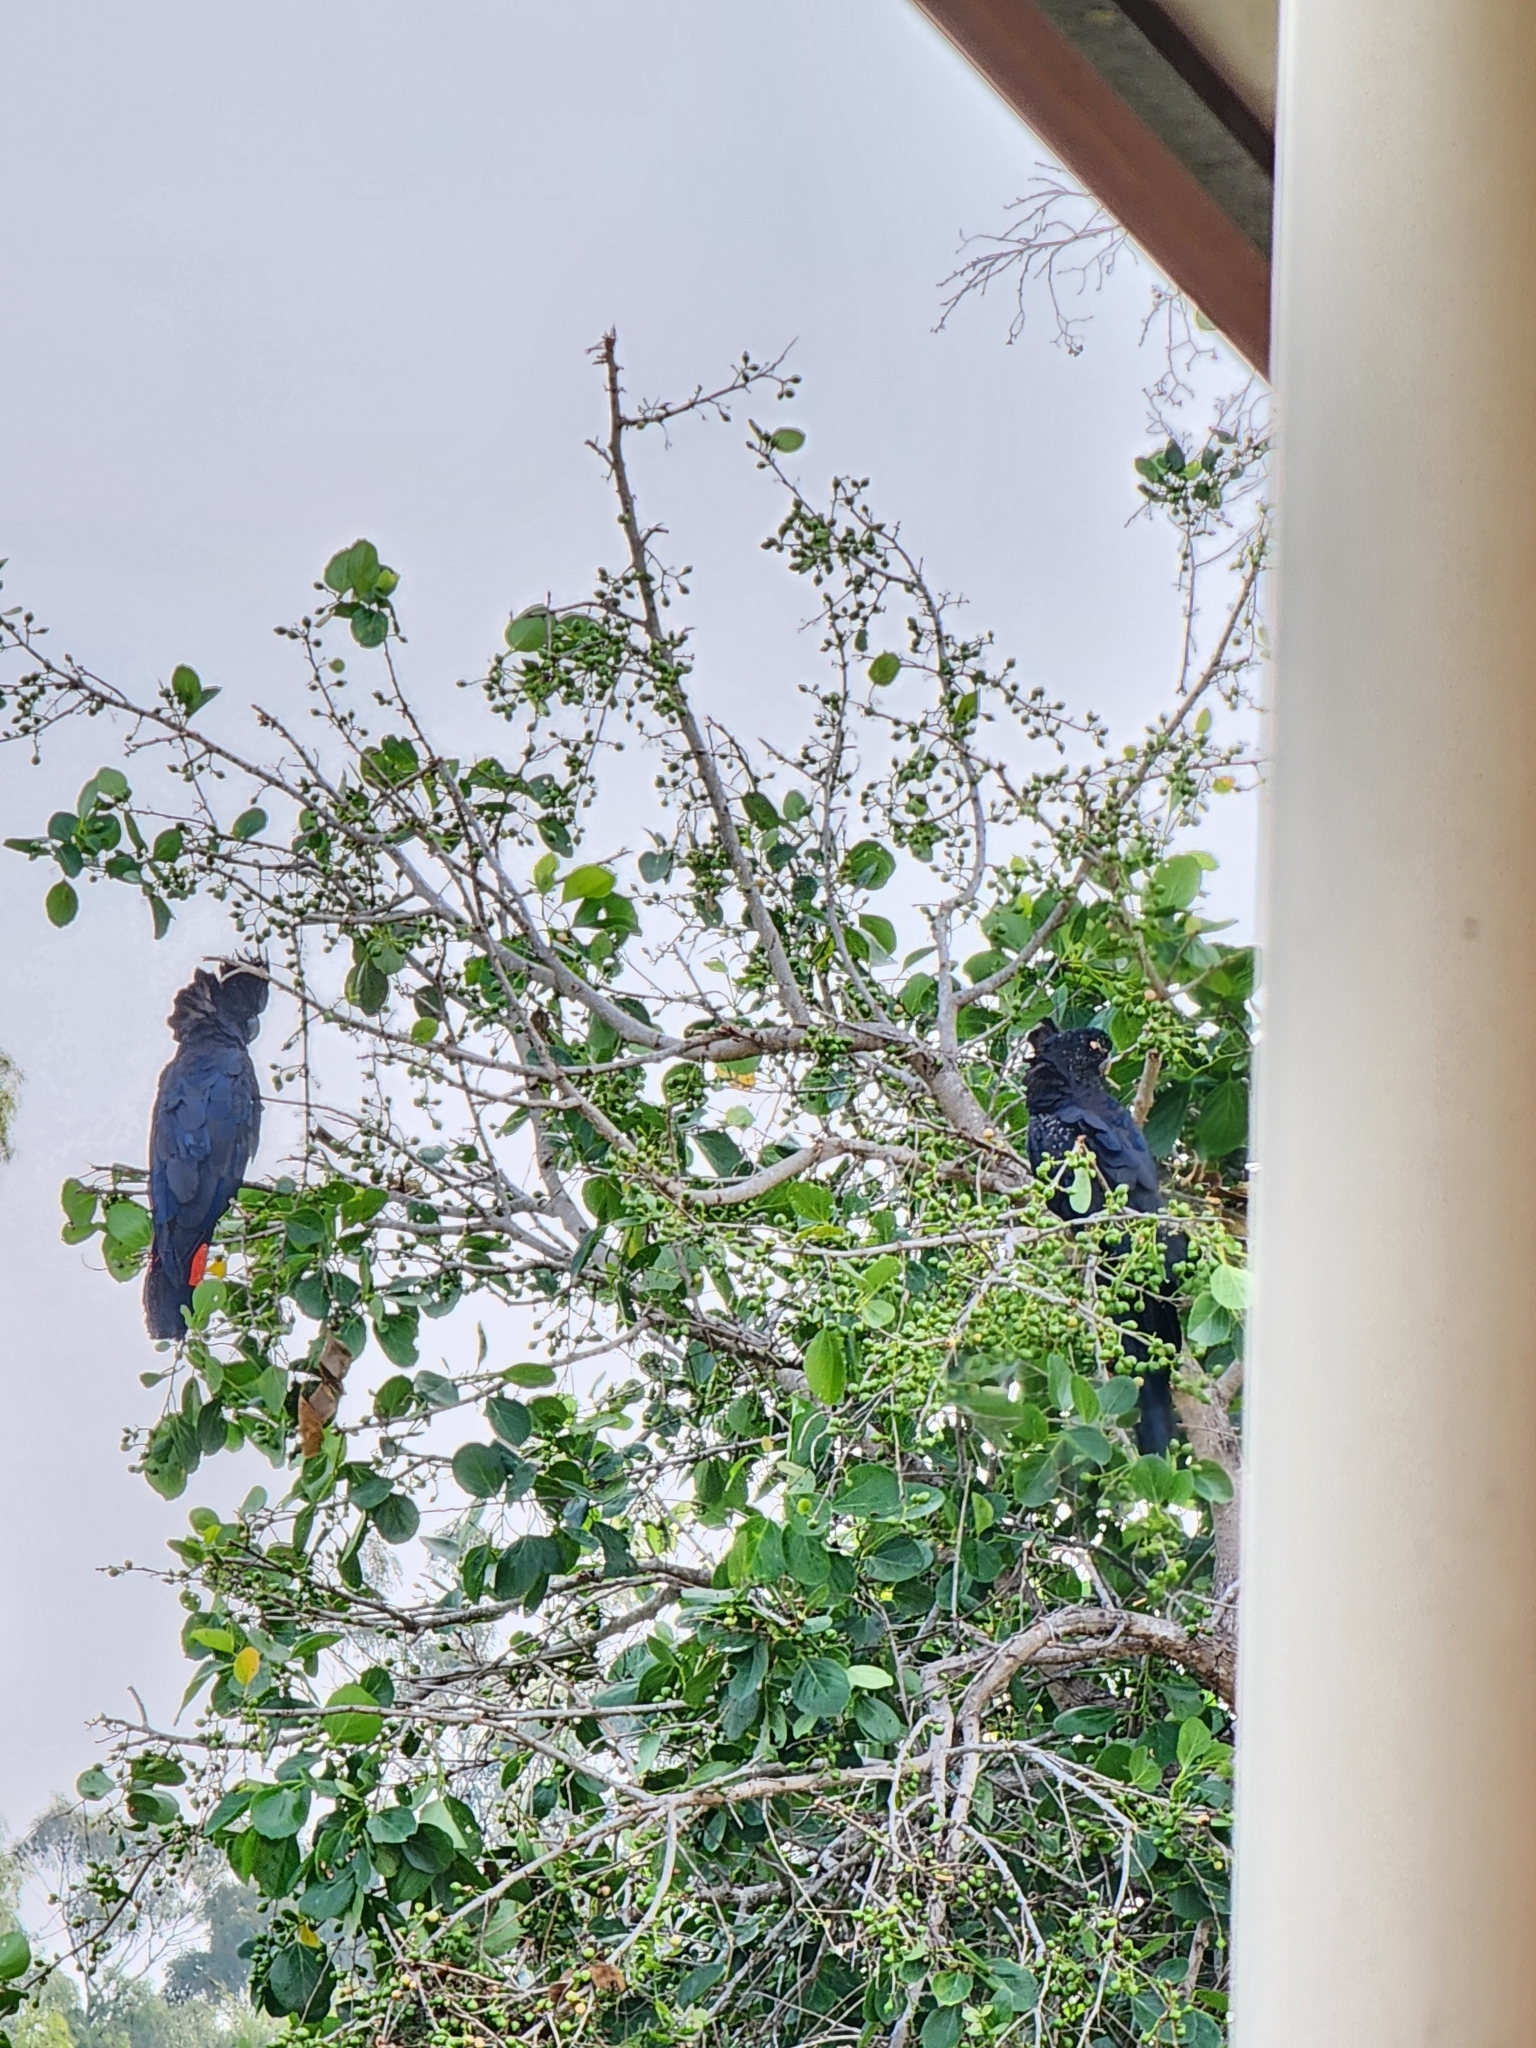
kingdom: Animalia
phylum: Chordata
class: Aves
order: Psittaciformes
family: Psittacidae
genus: Calyptorhynchus
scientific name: Calyptorhynchus banksii
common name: Red-tailed black cockatoo
